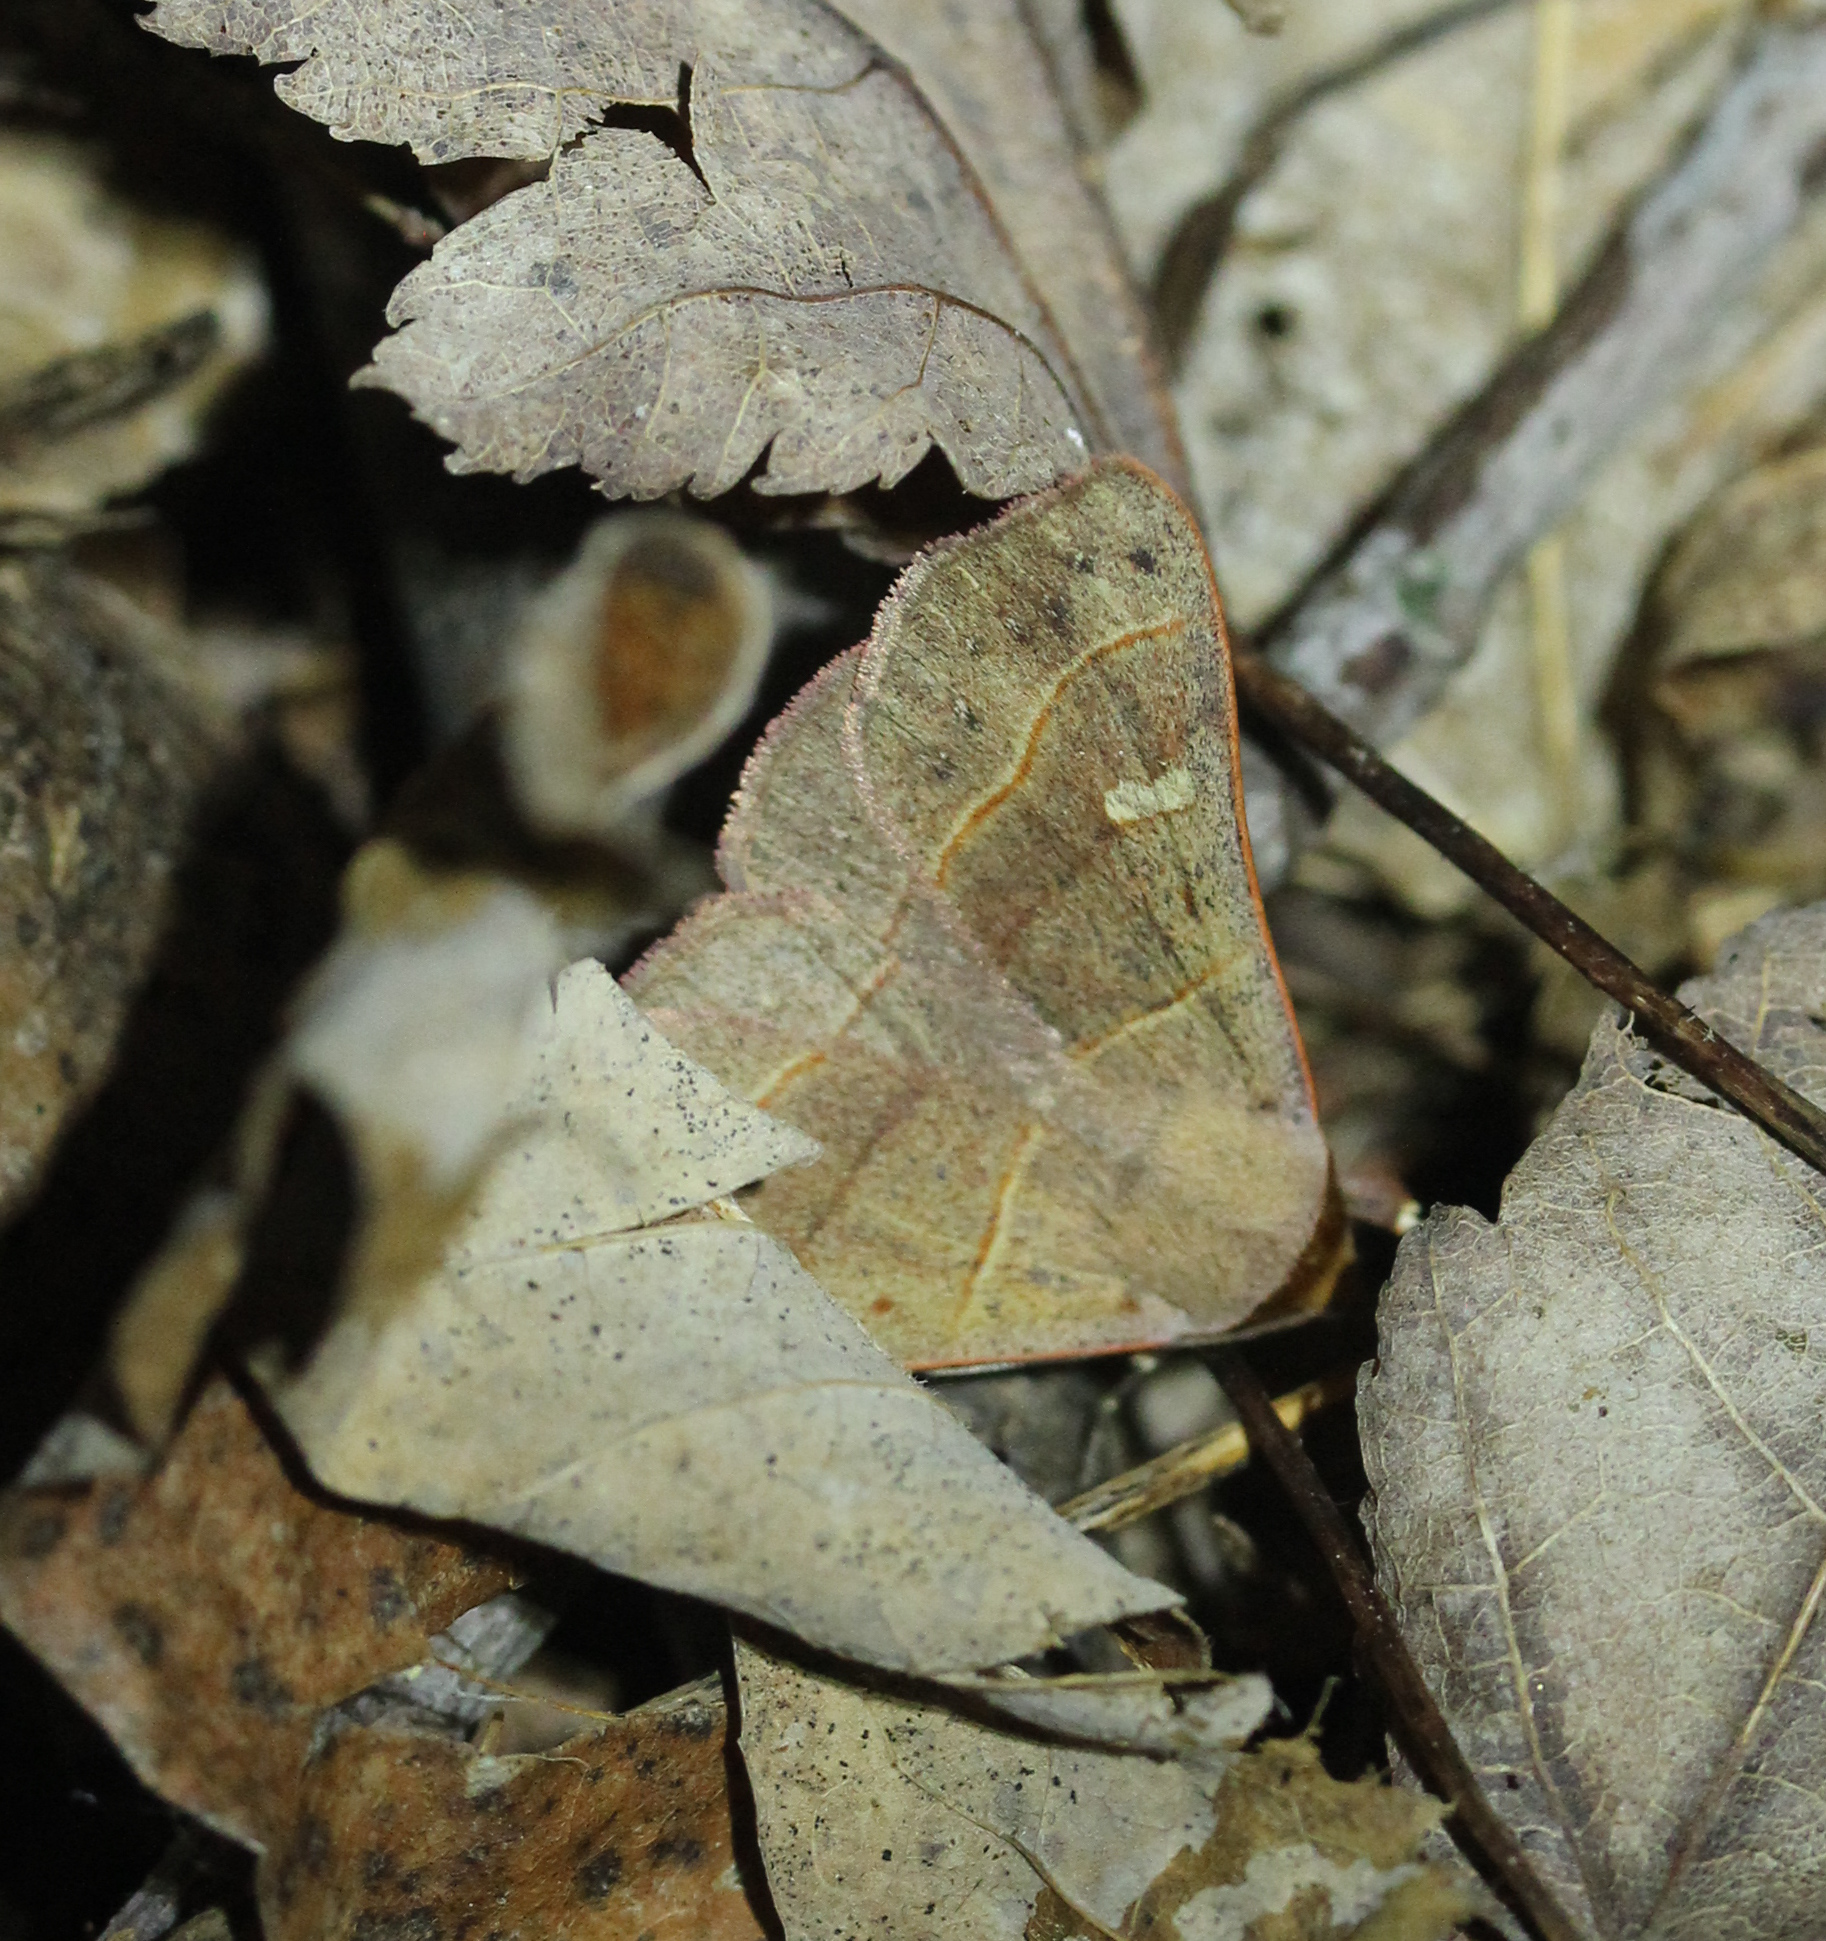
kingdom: Animalia
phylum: Arthropoda
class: Insecta
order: Lepidoptera
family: Erebidae
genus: Panopoda
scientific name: Panopoda rufimargo
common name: Red-lined panopoda moth
